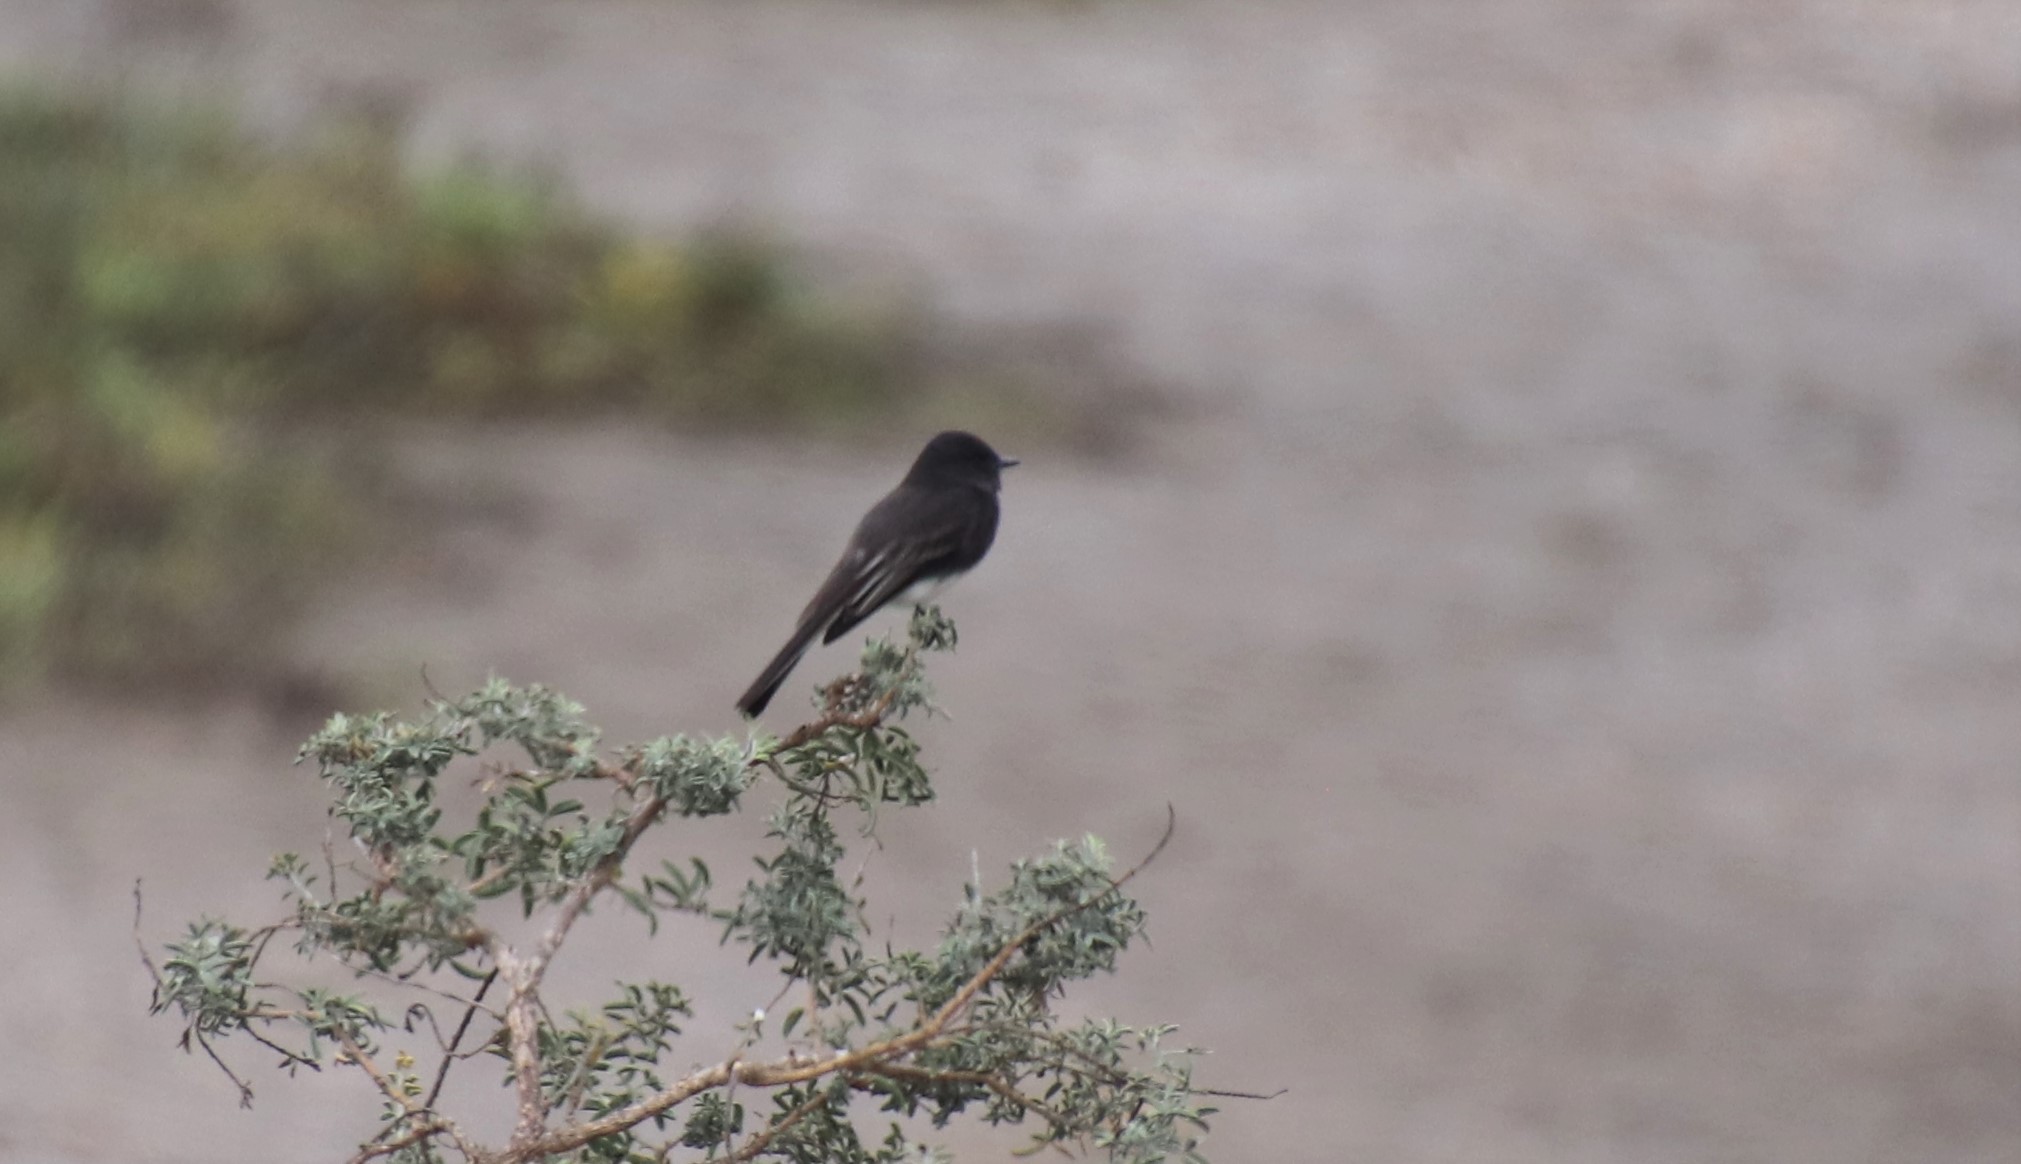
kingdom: Animalia
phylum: Chordata
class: Aves
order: Passeriformes
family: Tyrannidae
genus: Sayornis
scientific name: Sayornis nigricans
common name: Black phoebe
